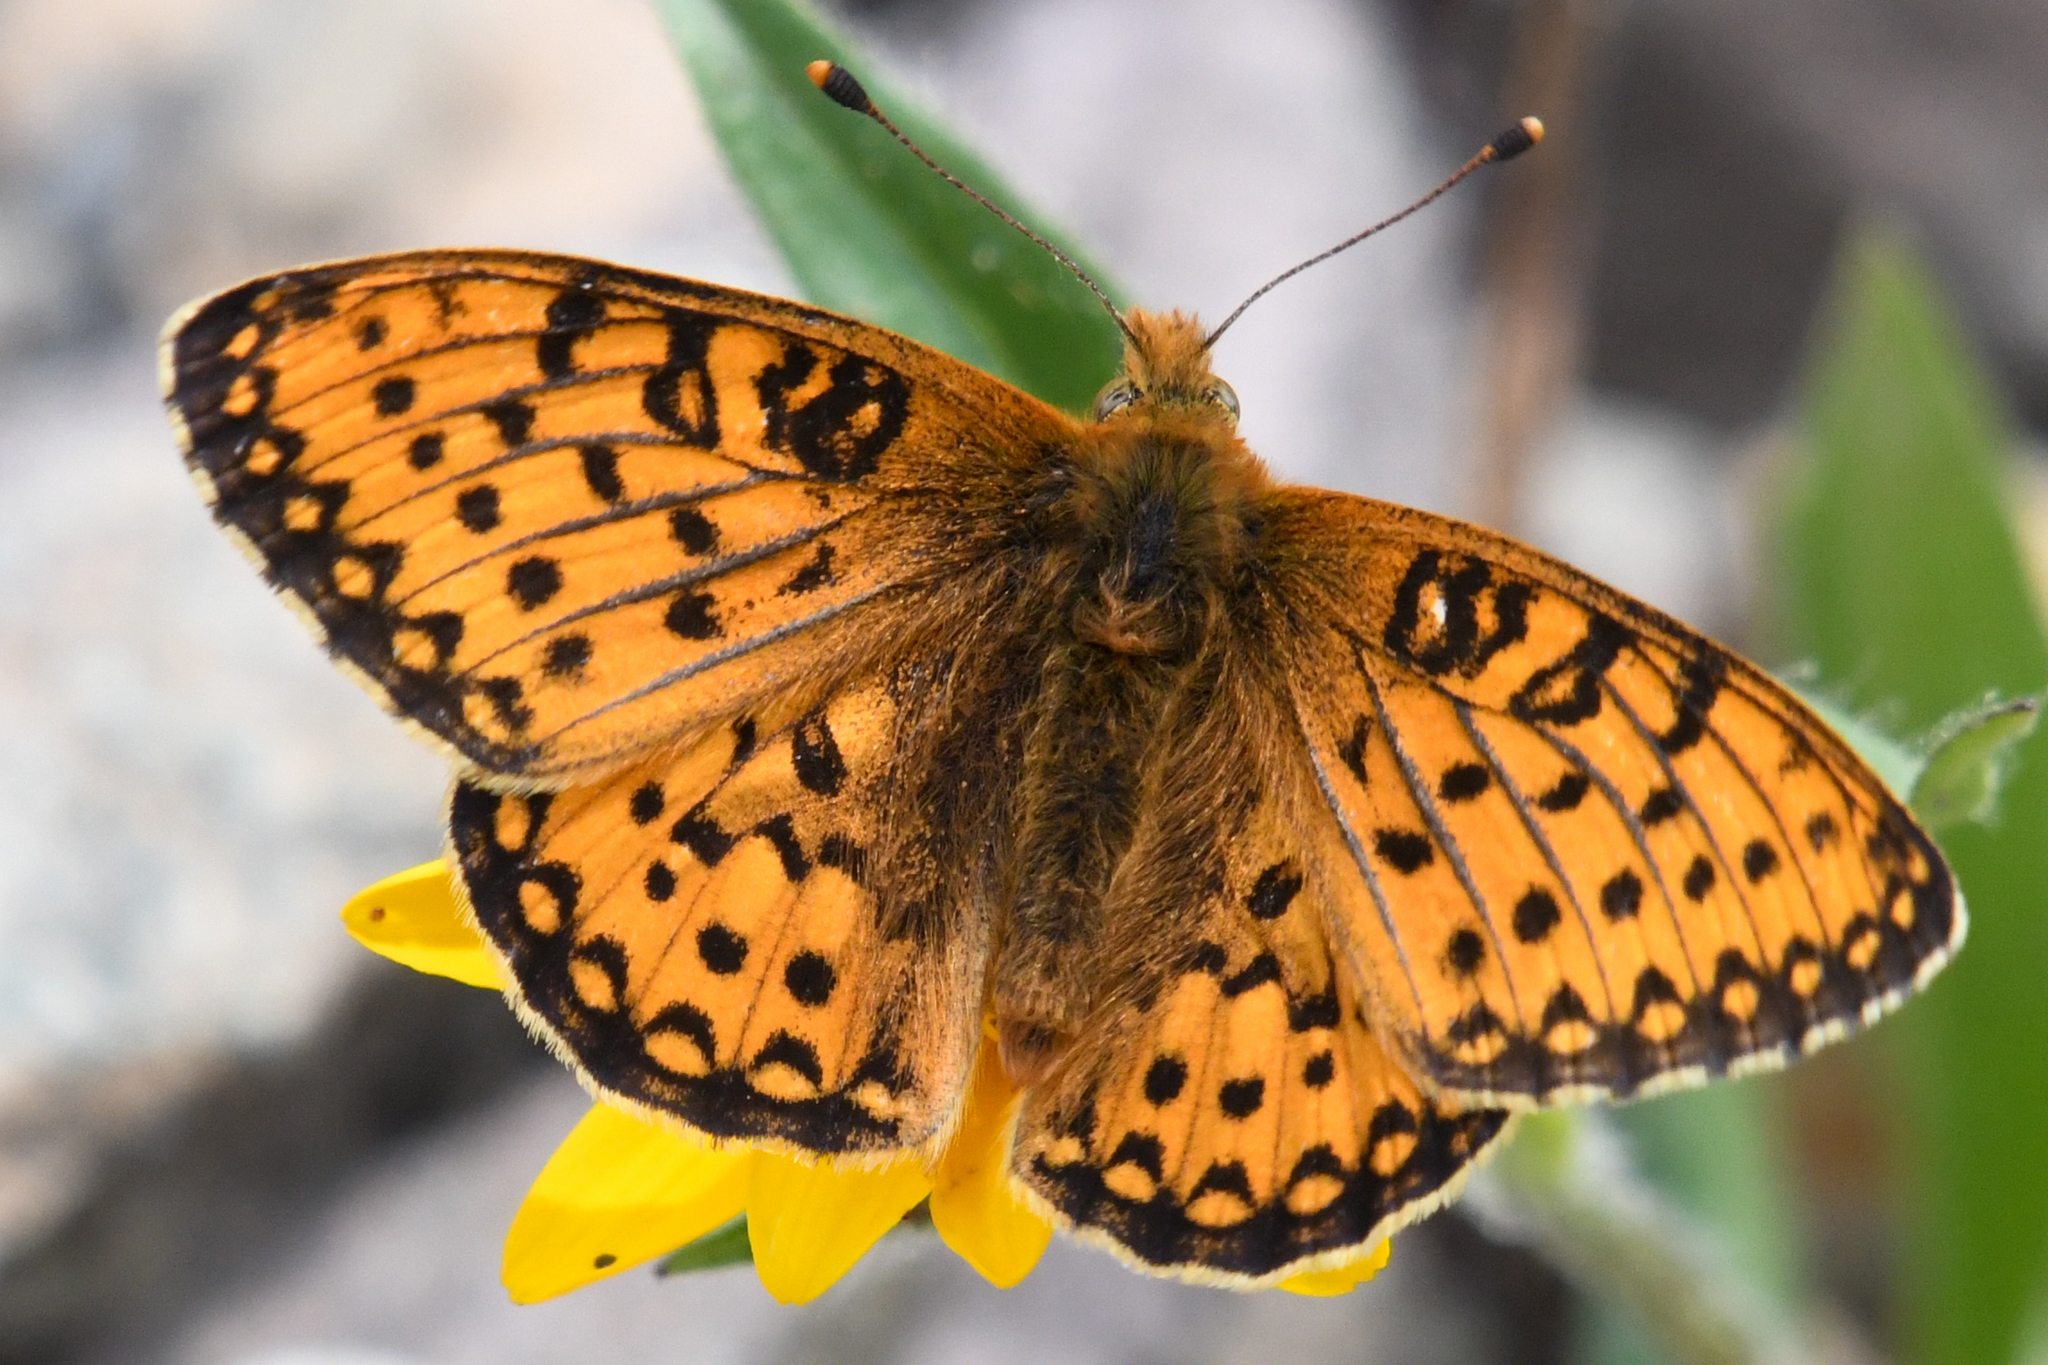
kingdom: Animalia
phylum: Arthropoda
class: Insecta
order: Lepidoptera
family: Nymphalidae
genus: Speyeria
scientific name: Speyeria mormonia
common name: Mormon fritillary
